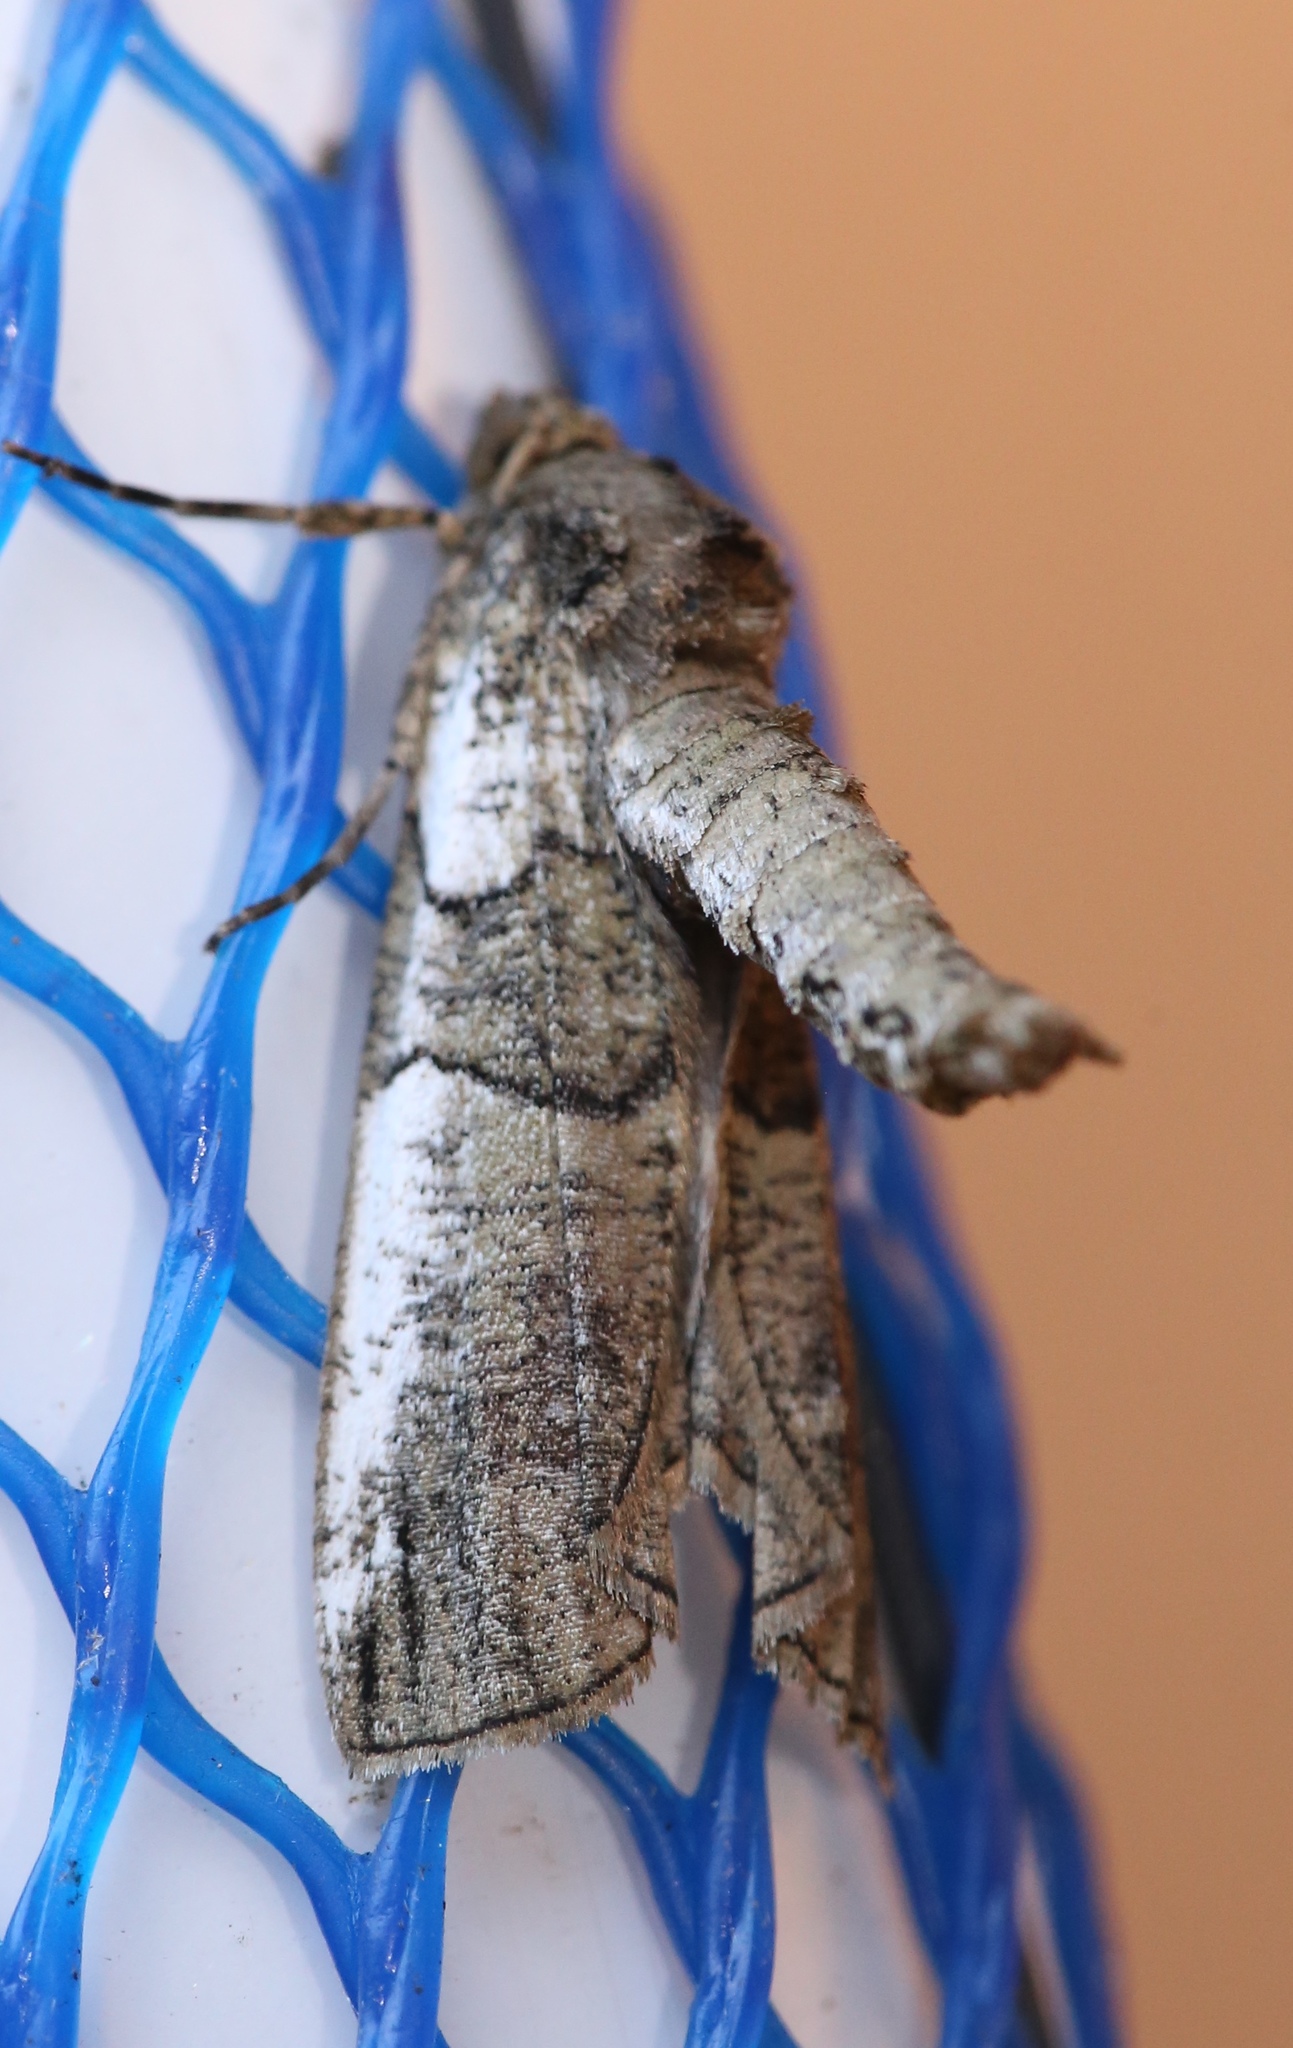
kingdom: Animalia
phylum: Arthropoda
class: Insecta
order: Lepidoptera
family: Geometridae
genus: Ceratonyx
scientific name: Ceratonyx satanaria
